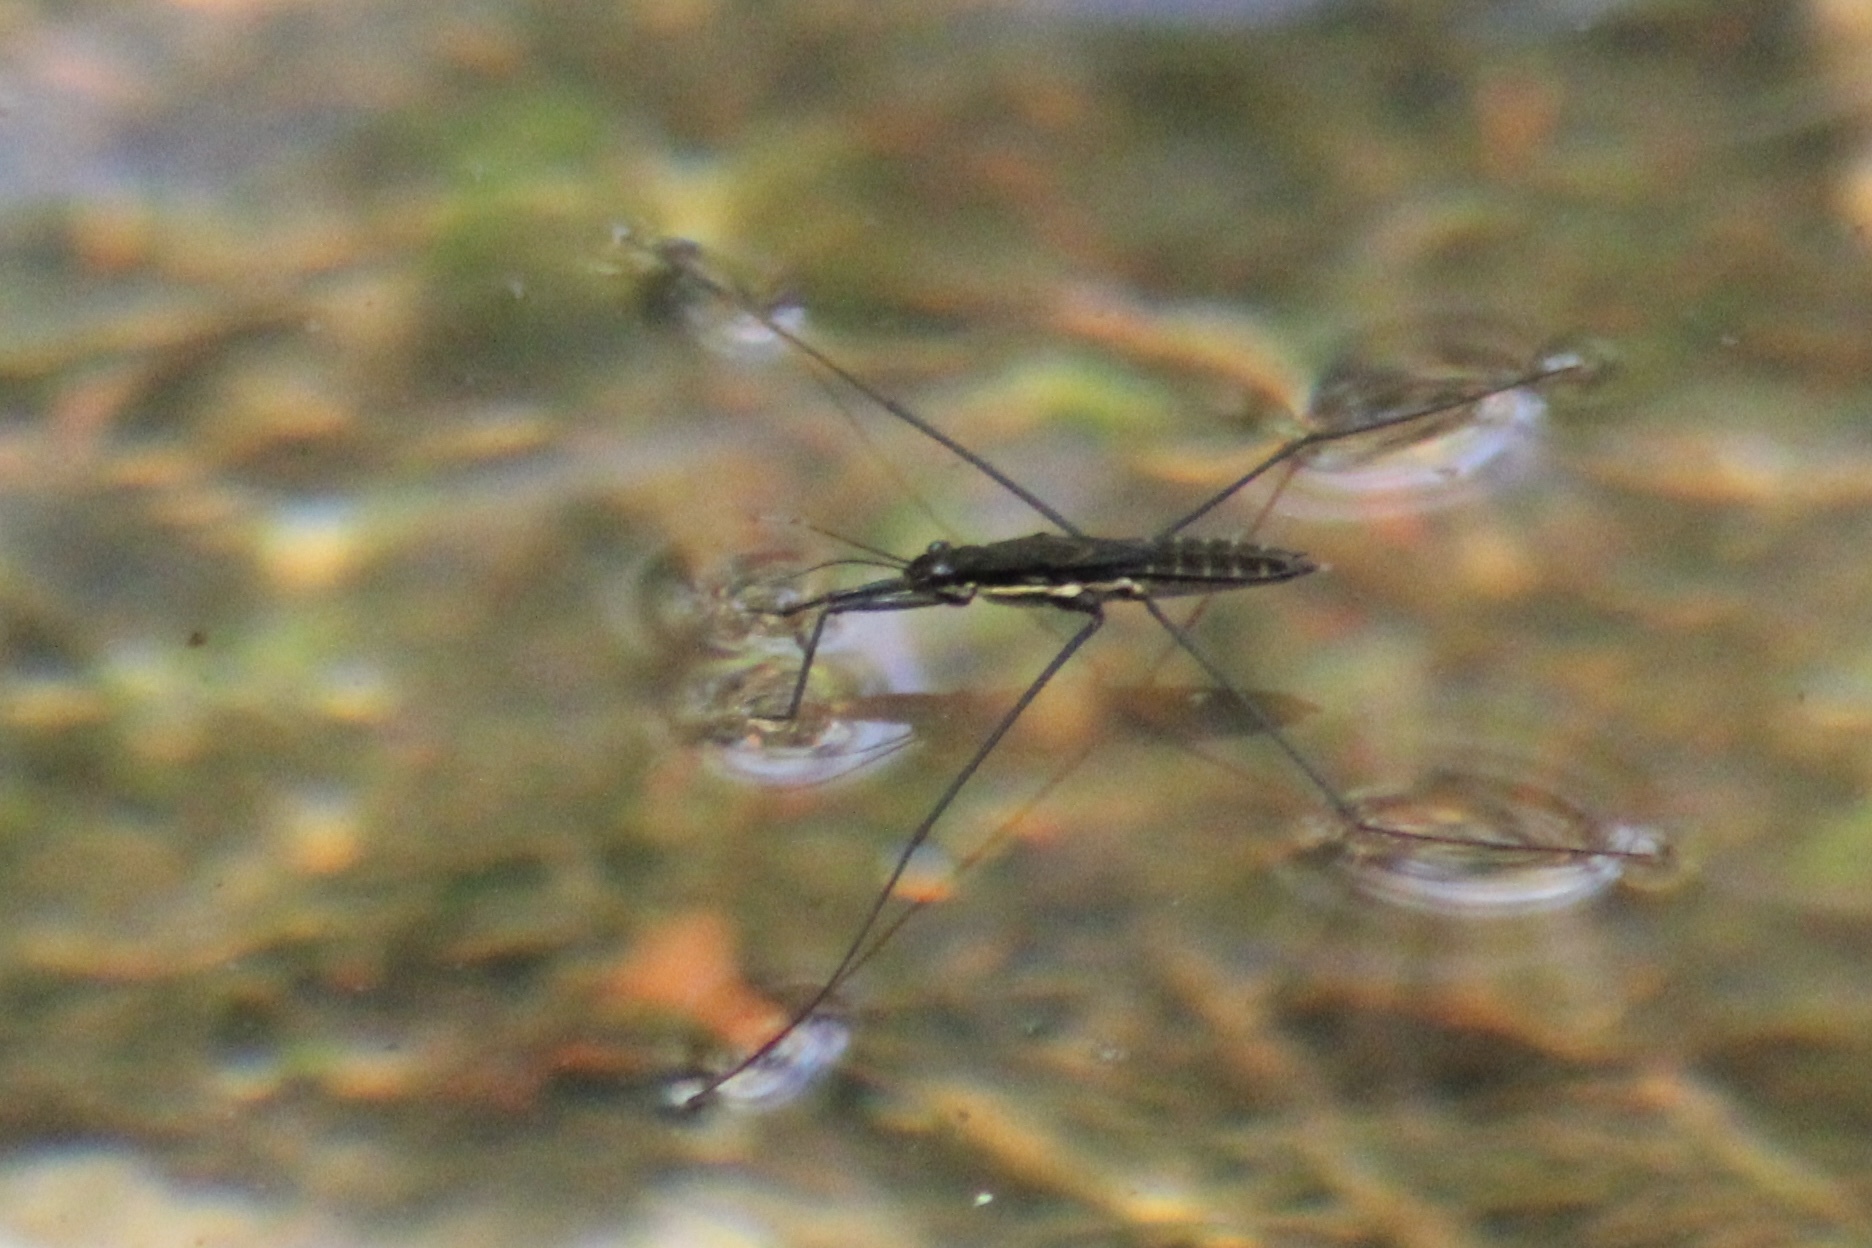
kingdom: Animalia
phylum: Arthropoda
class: Insecta
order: Hemiptera
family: Gerridae
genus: Aquarius
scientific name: Aquarius nebularis
